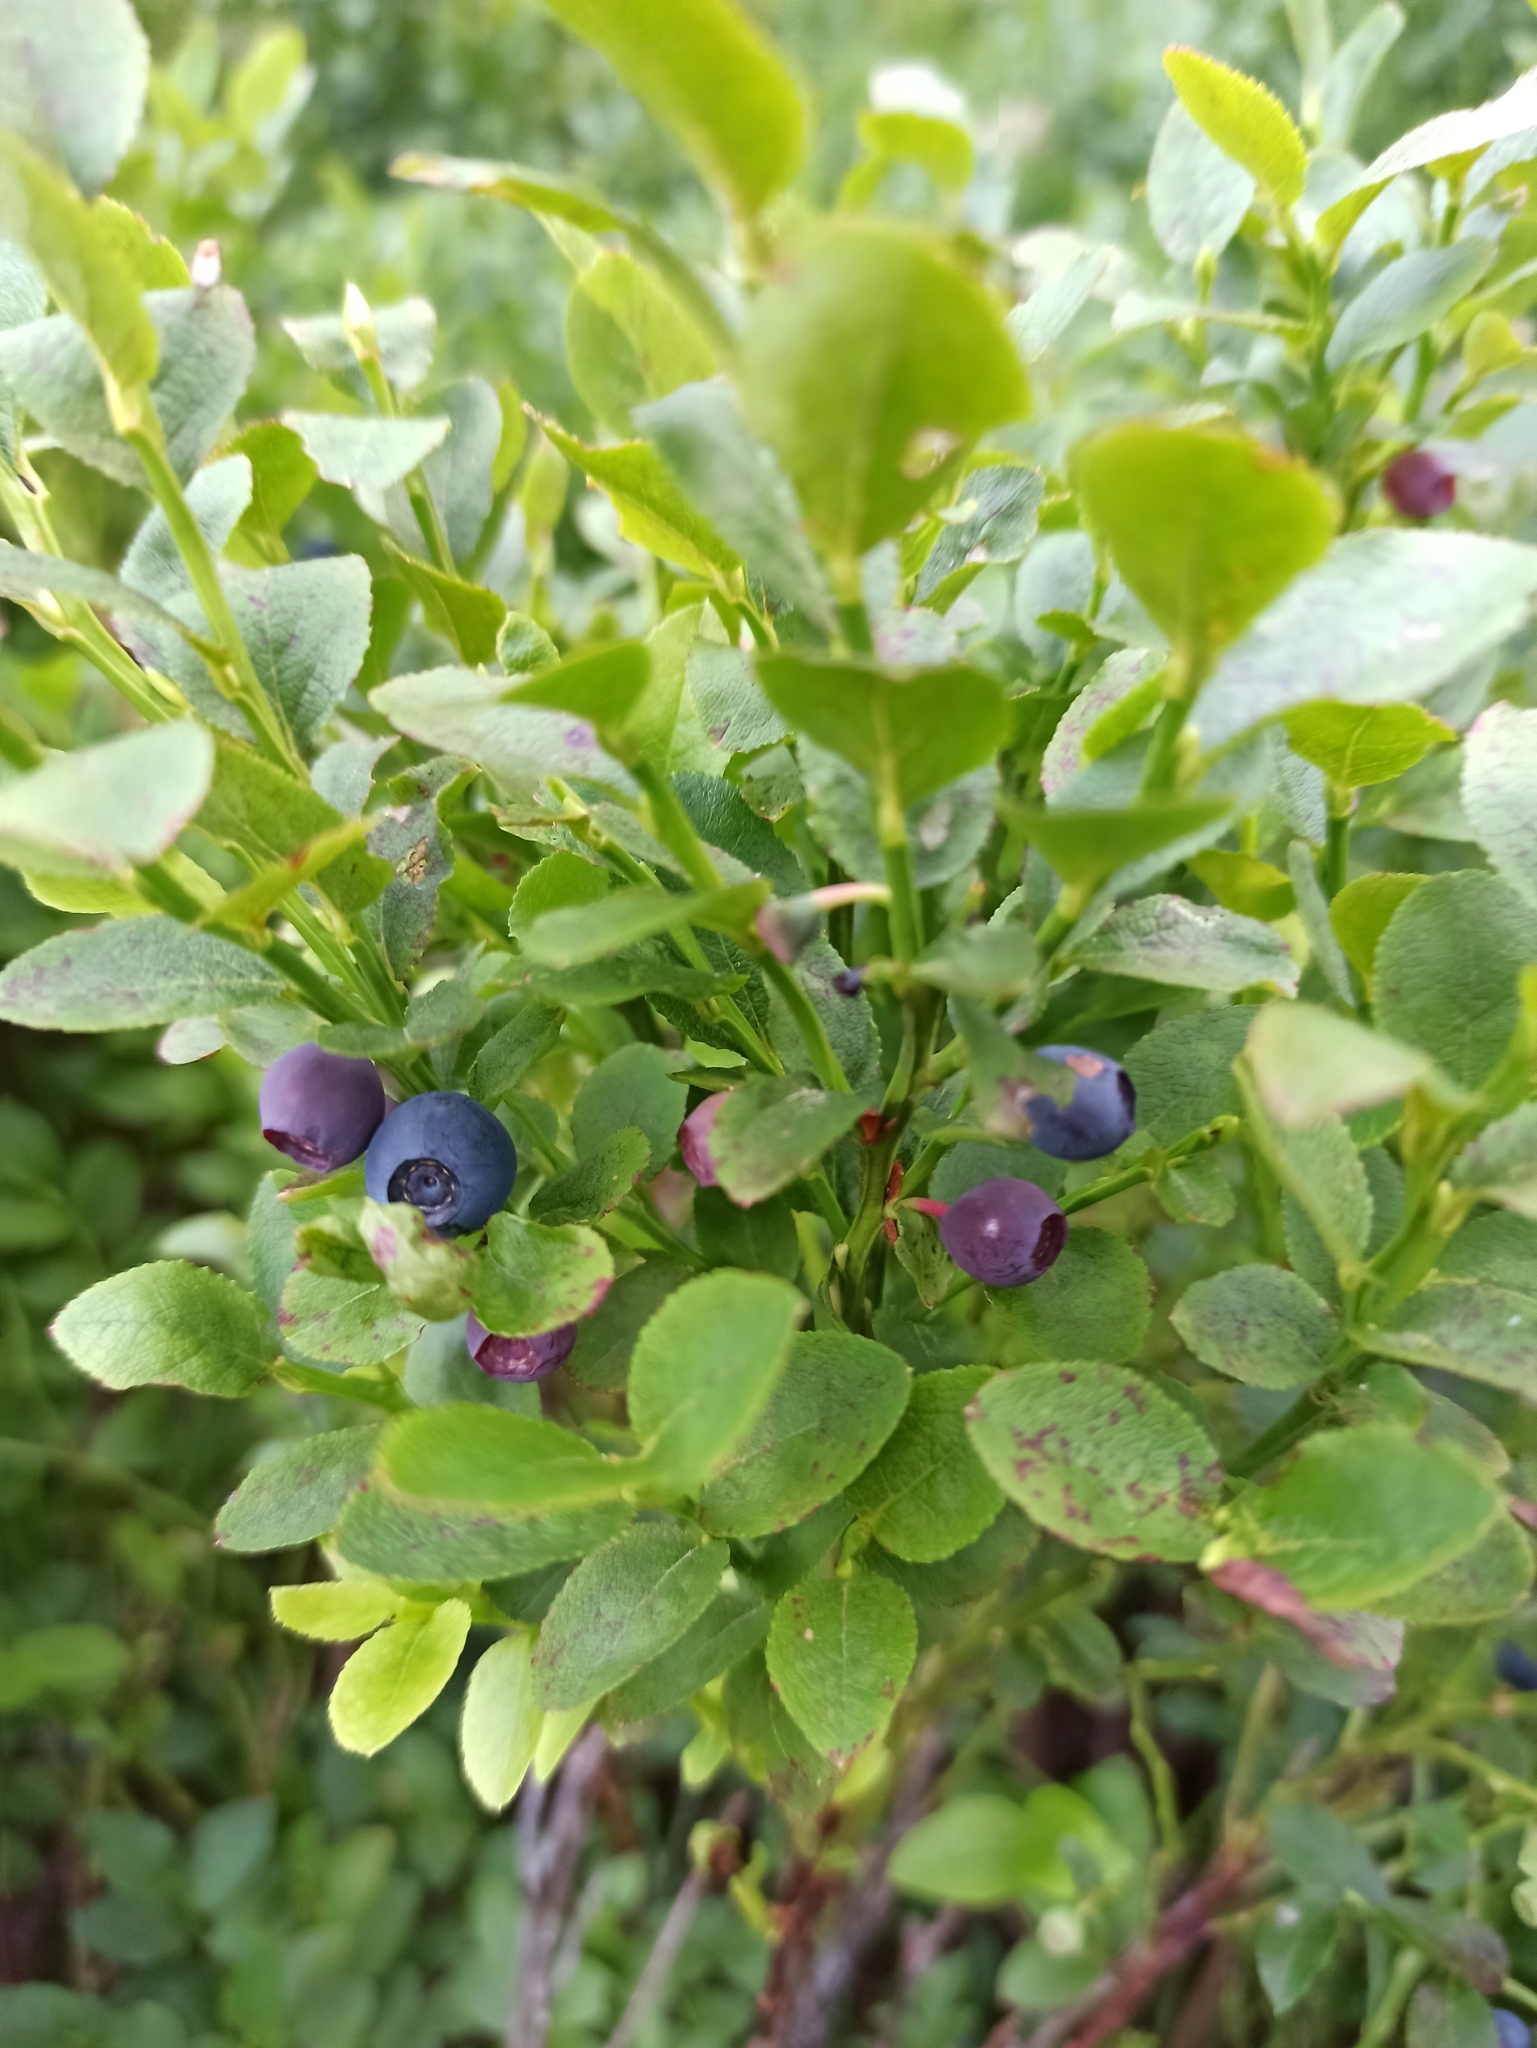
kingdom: Plantae
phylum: Tracheophyta
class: Magnoliopsida
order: Ericales
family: Ericaceae
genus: Vaccinium
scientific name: Vaccinium myrtillus
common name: Bilberry
